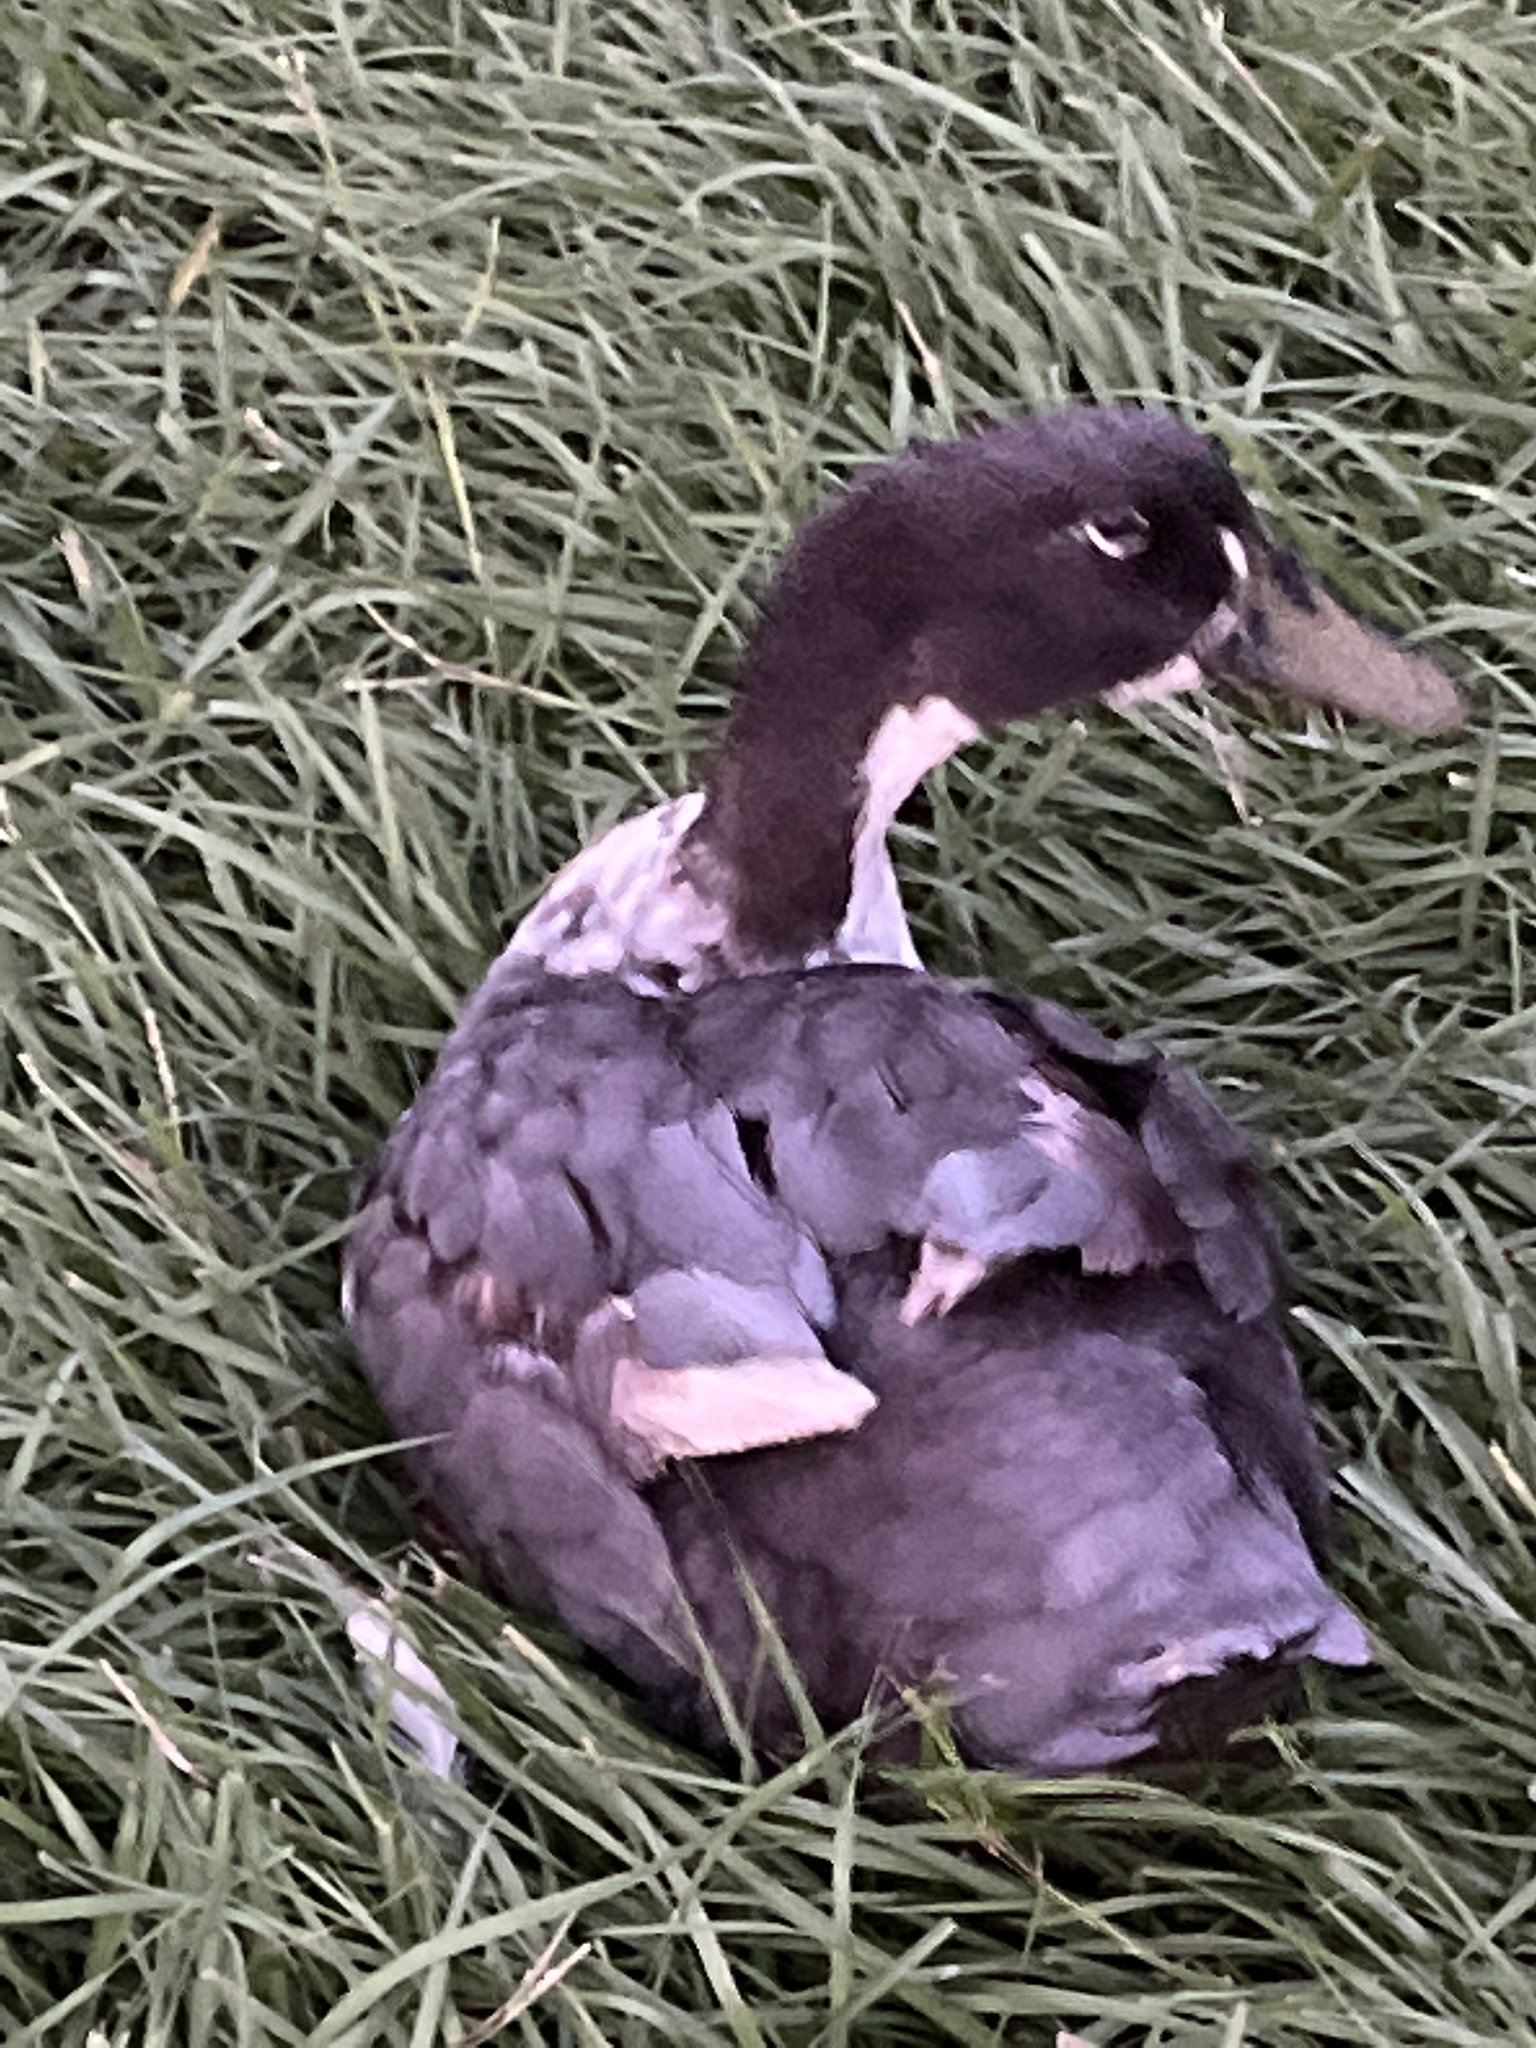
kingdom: Animalia
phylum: Chordata
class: Aves
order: Anseriformes
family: Anatidae
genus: Anas
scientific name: Anas platyrhynchos
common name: Mallard
